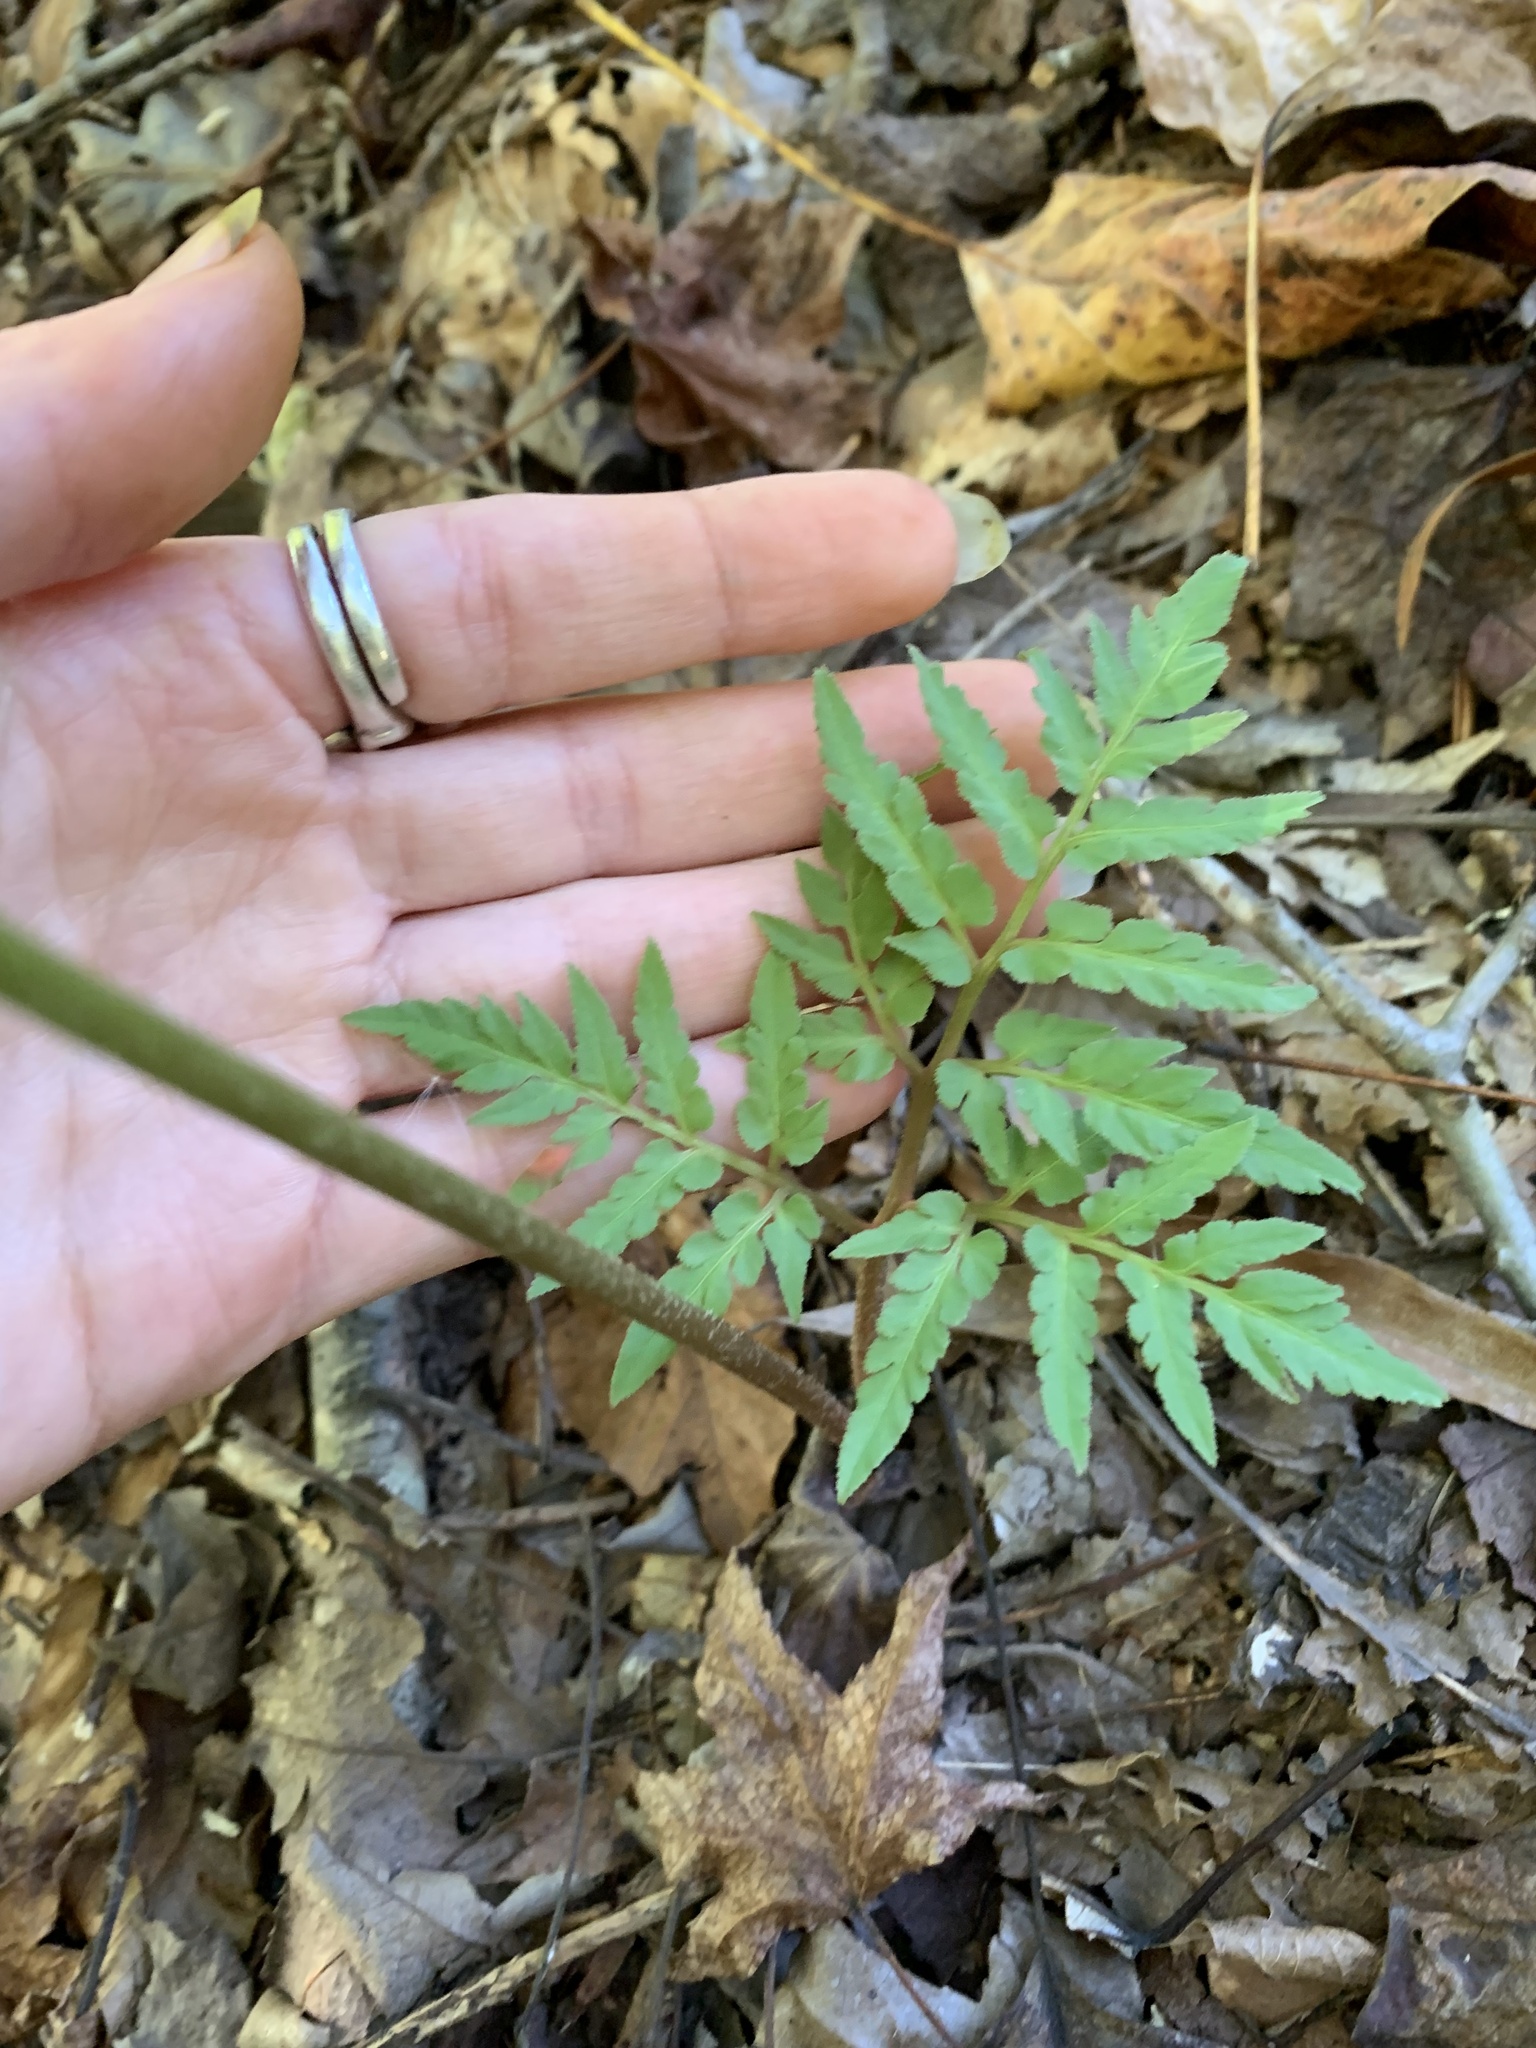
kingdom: Plantae
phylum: Tracheophyta
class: Polypodiopsida
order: Ophioglossales
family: Ophioglossaceae
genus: Sceptridium
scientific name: Sceptridium dissectum
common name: Cut-leaved grapefern
